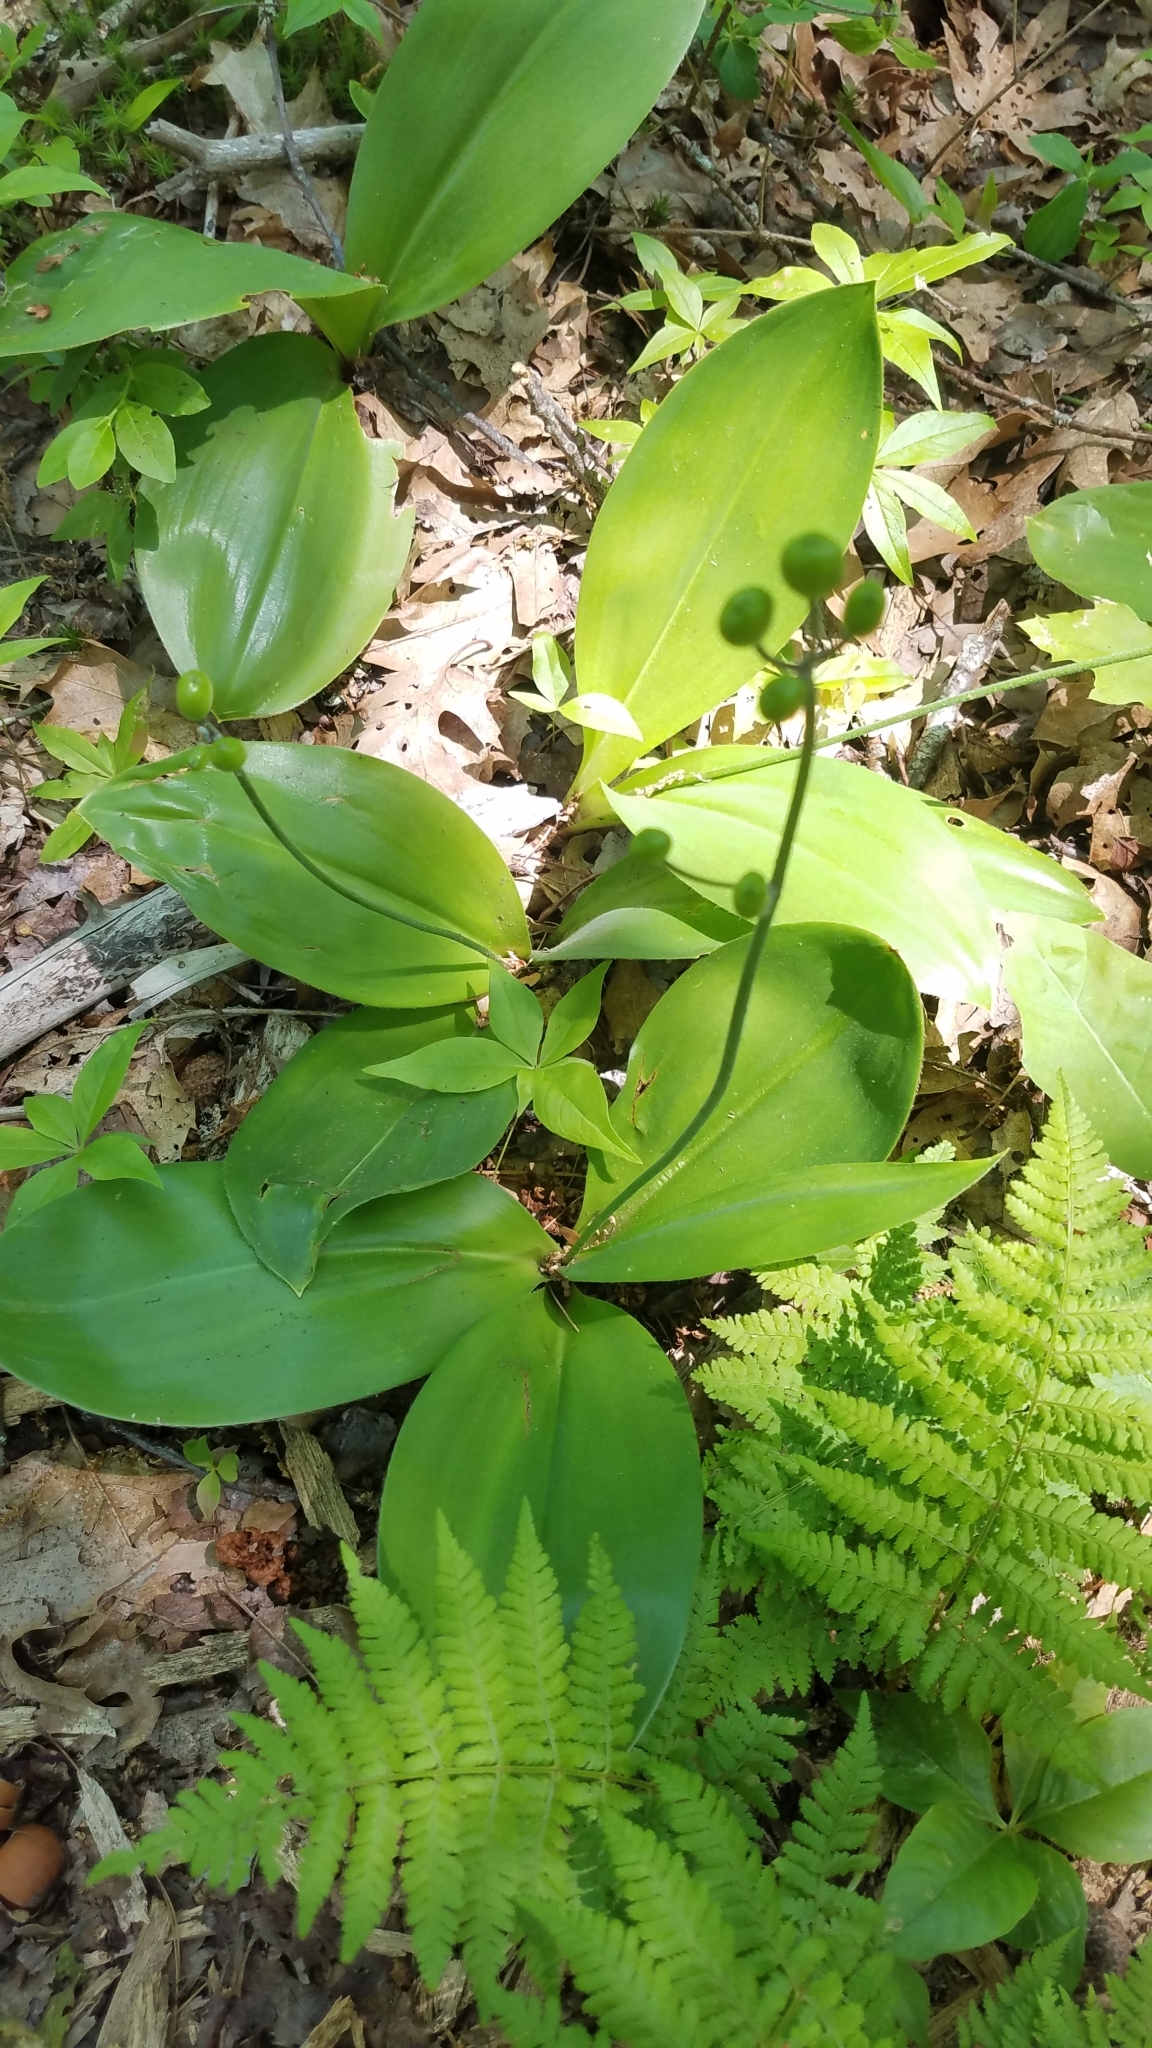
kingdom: Plantae
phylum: Tracheophyta
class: Liliopsida
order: Liliales
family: Liliaceae
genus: Clintonia
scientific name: Clintonia borealis
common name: Yellow clintonia
